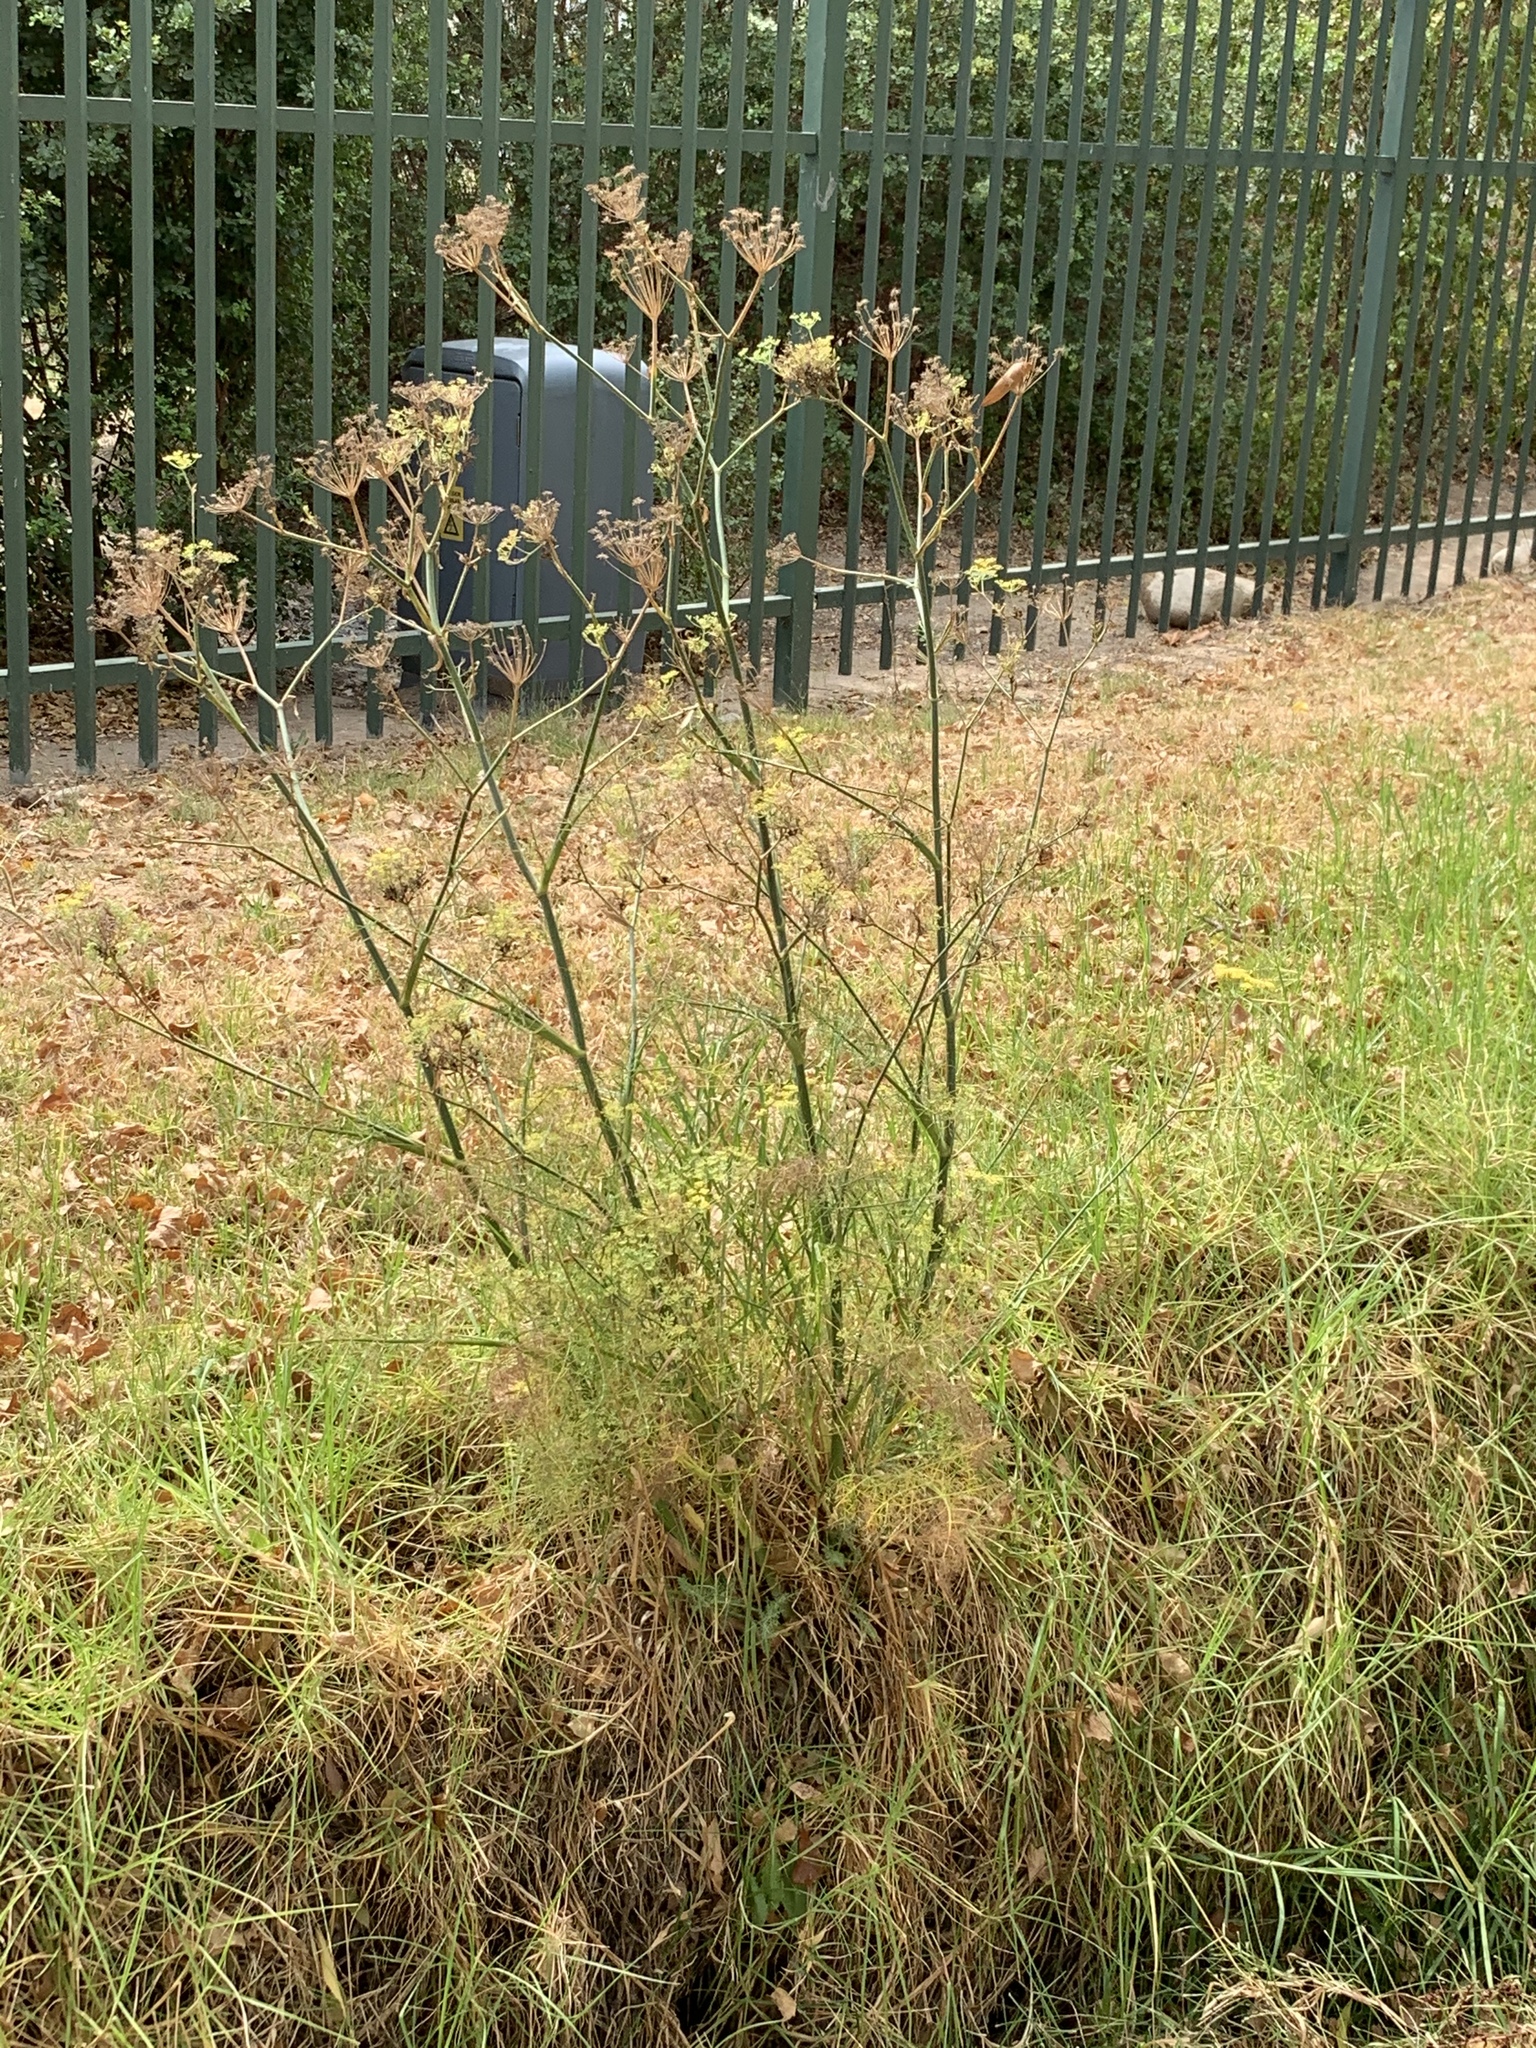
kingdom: Plantae
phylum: Tracheophyta
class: Magnoliopsida
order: Apiales
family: Apiaceae
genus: Foeniculum
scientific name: Foeniculum vulgare
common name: Fennel
